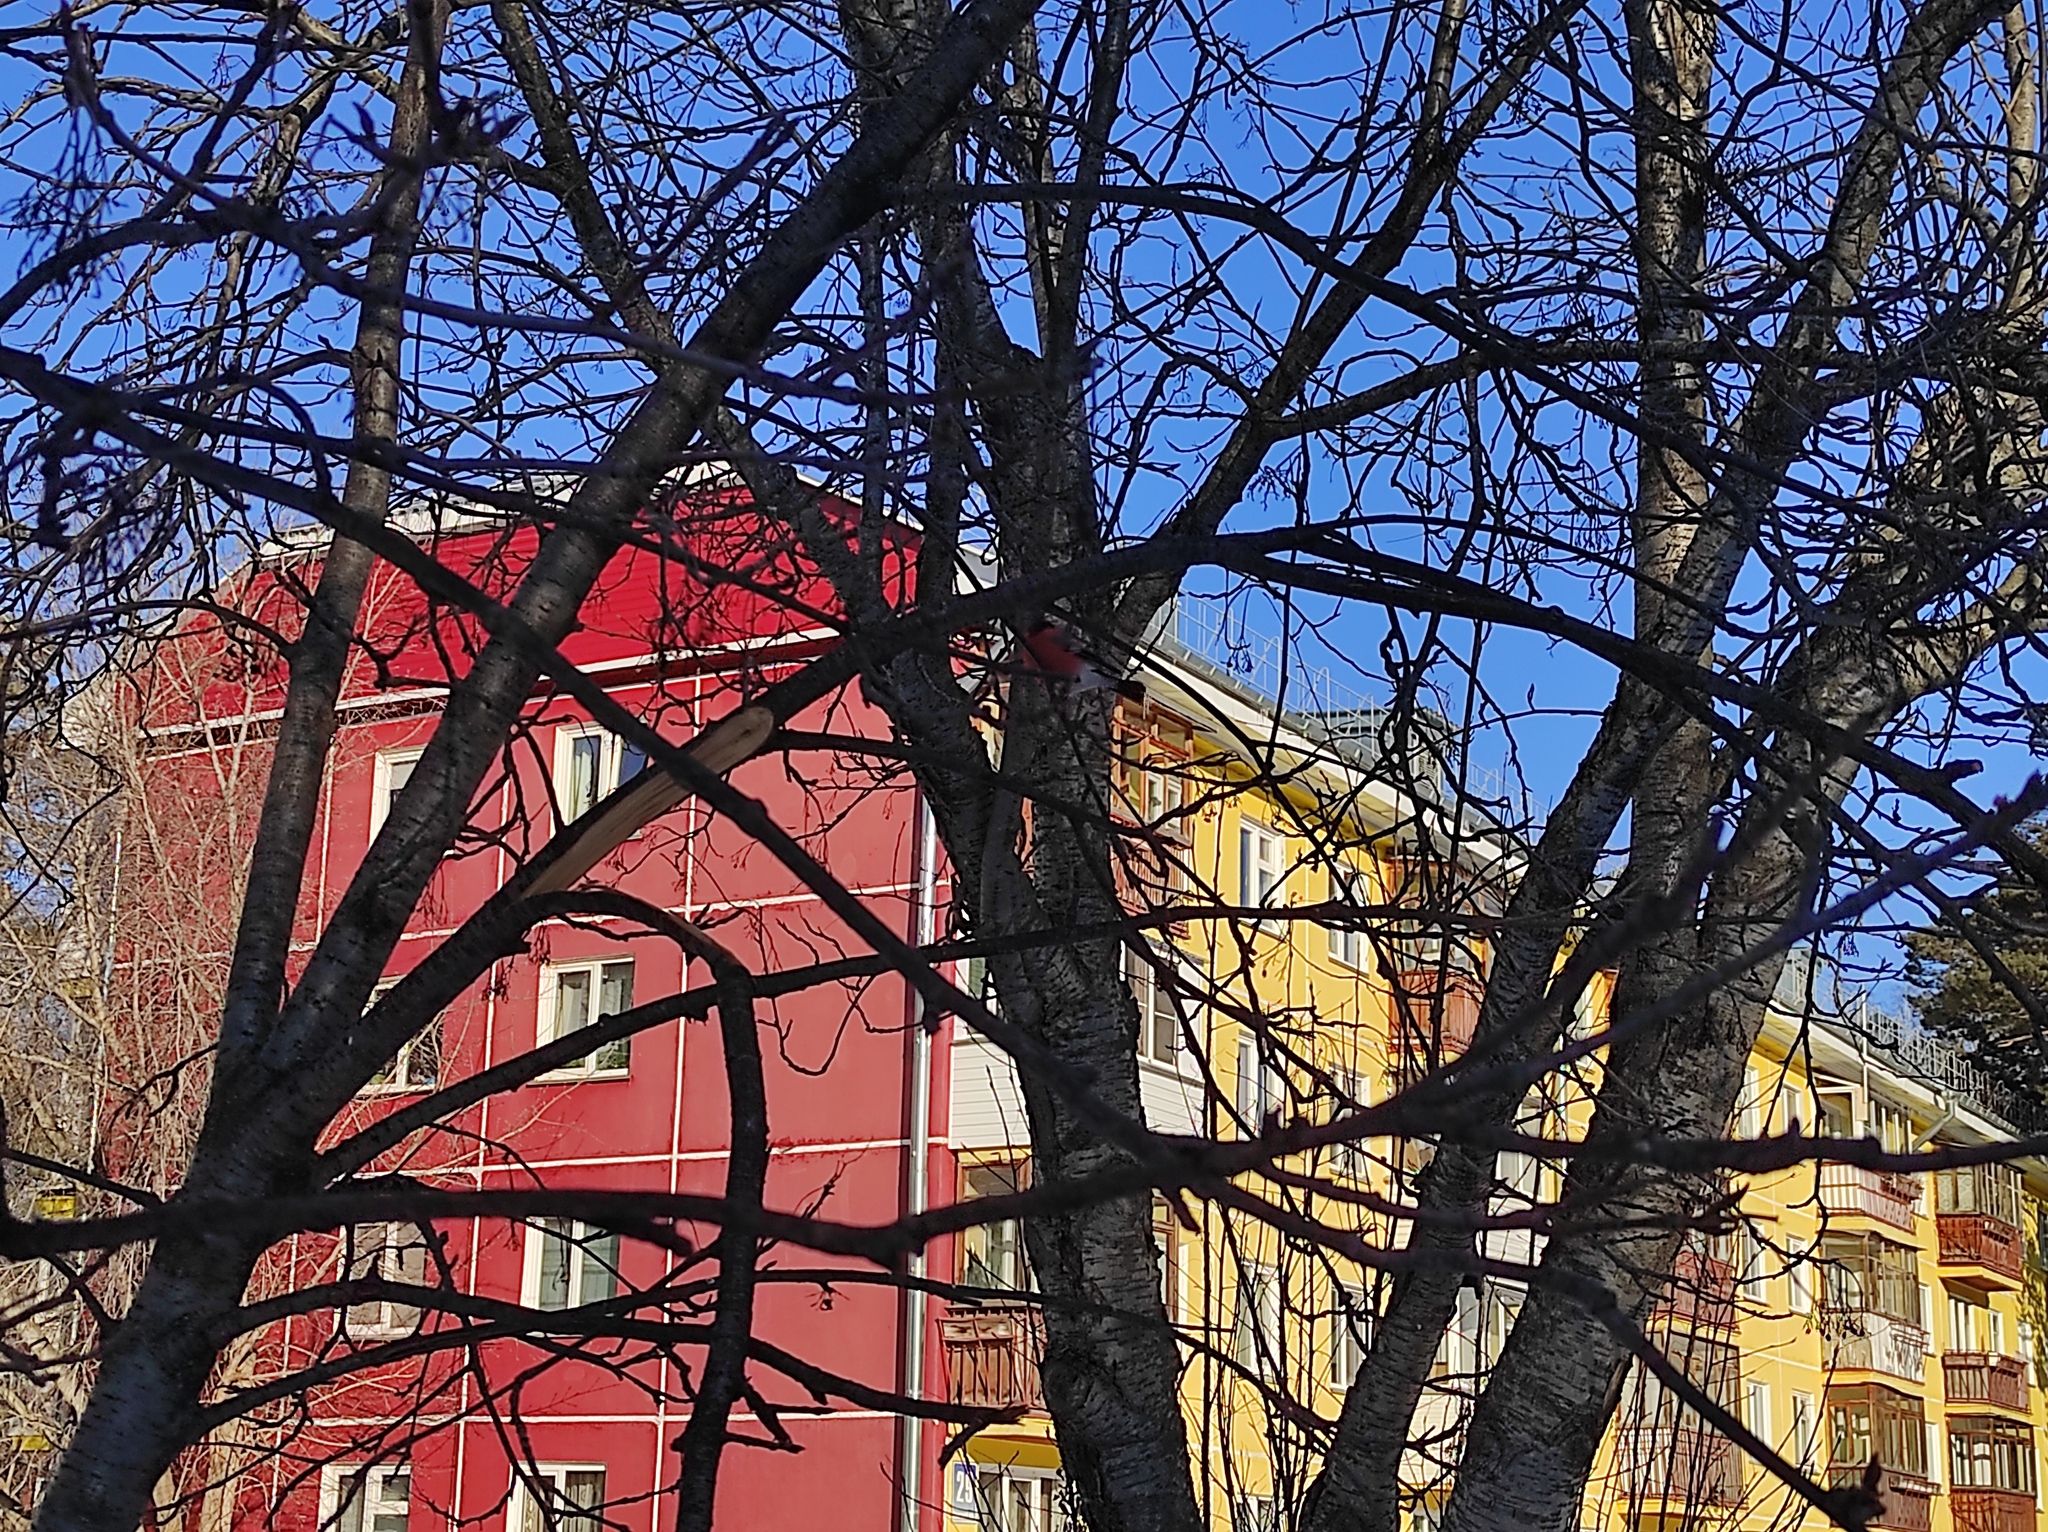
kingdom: Animalia
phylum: Chordata
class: Aves
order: Passeriformes
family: Fringillidae
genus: Pyrrhula
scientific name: Pyrrhula pyrrhula
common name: Eurasian bullfinch
